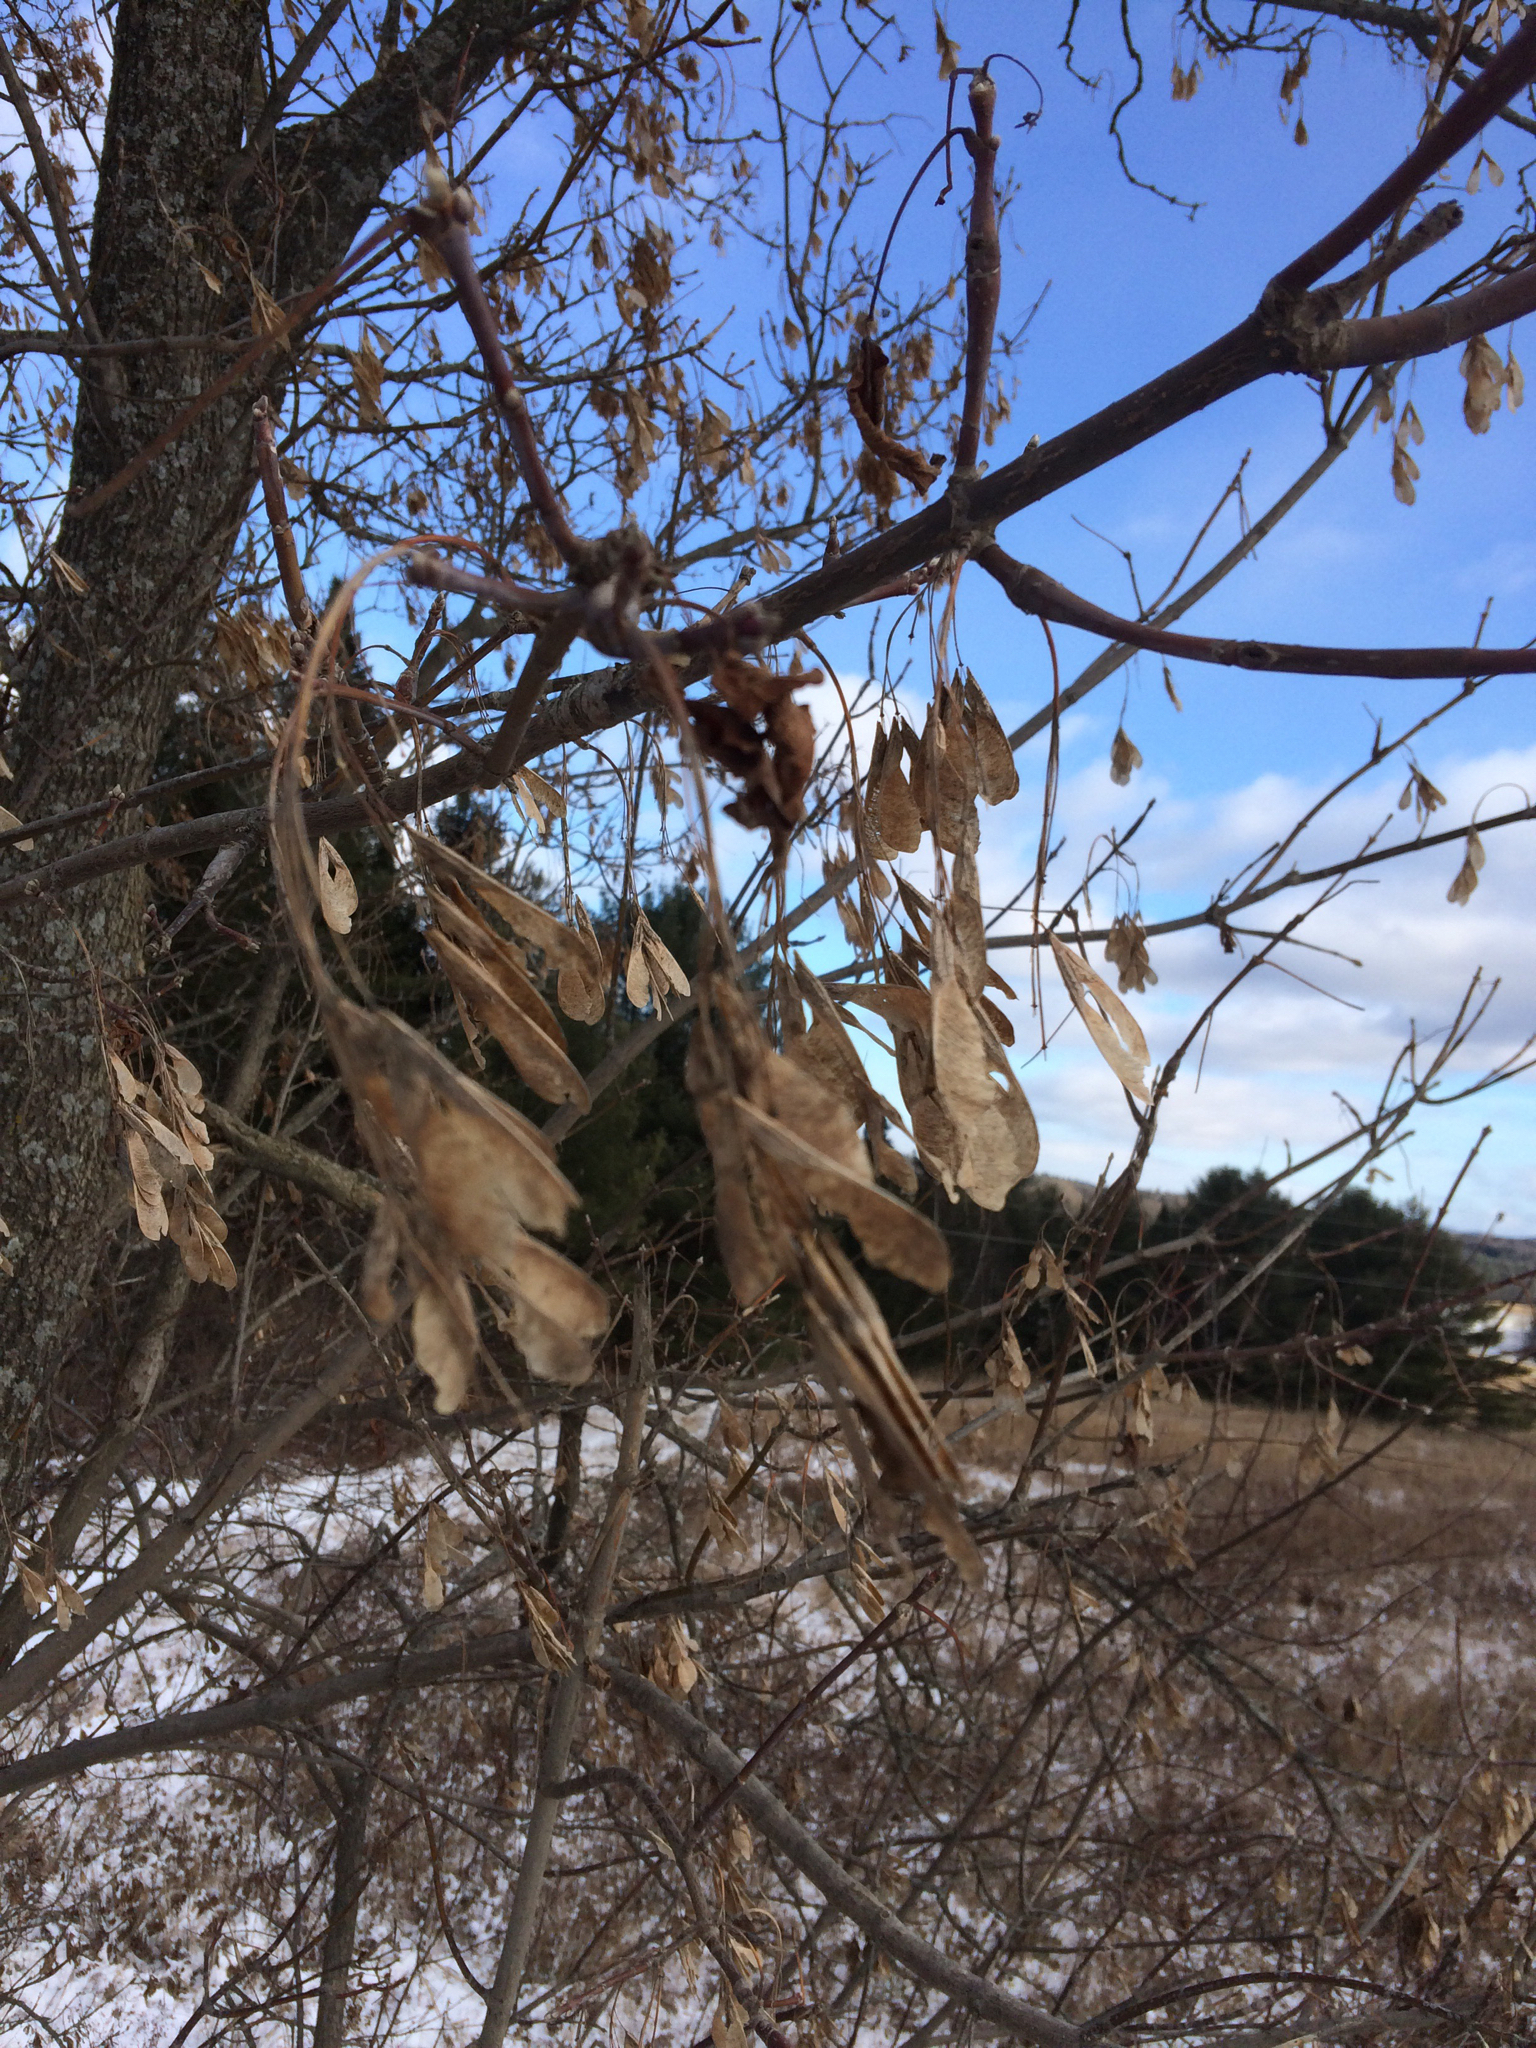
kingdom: Plantae
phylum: Tracheophyta
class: Magnoliopsida
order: Sapindales
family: Sapindaceae
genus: Acer
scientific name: Acer negundo
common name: Ashleaf maple
